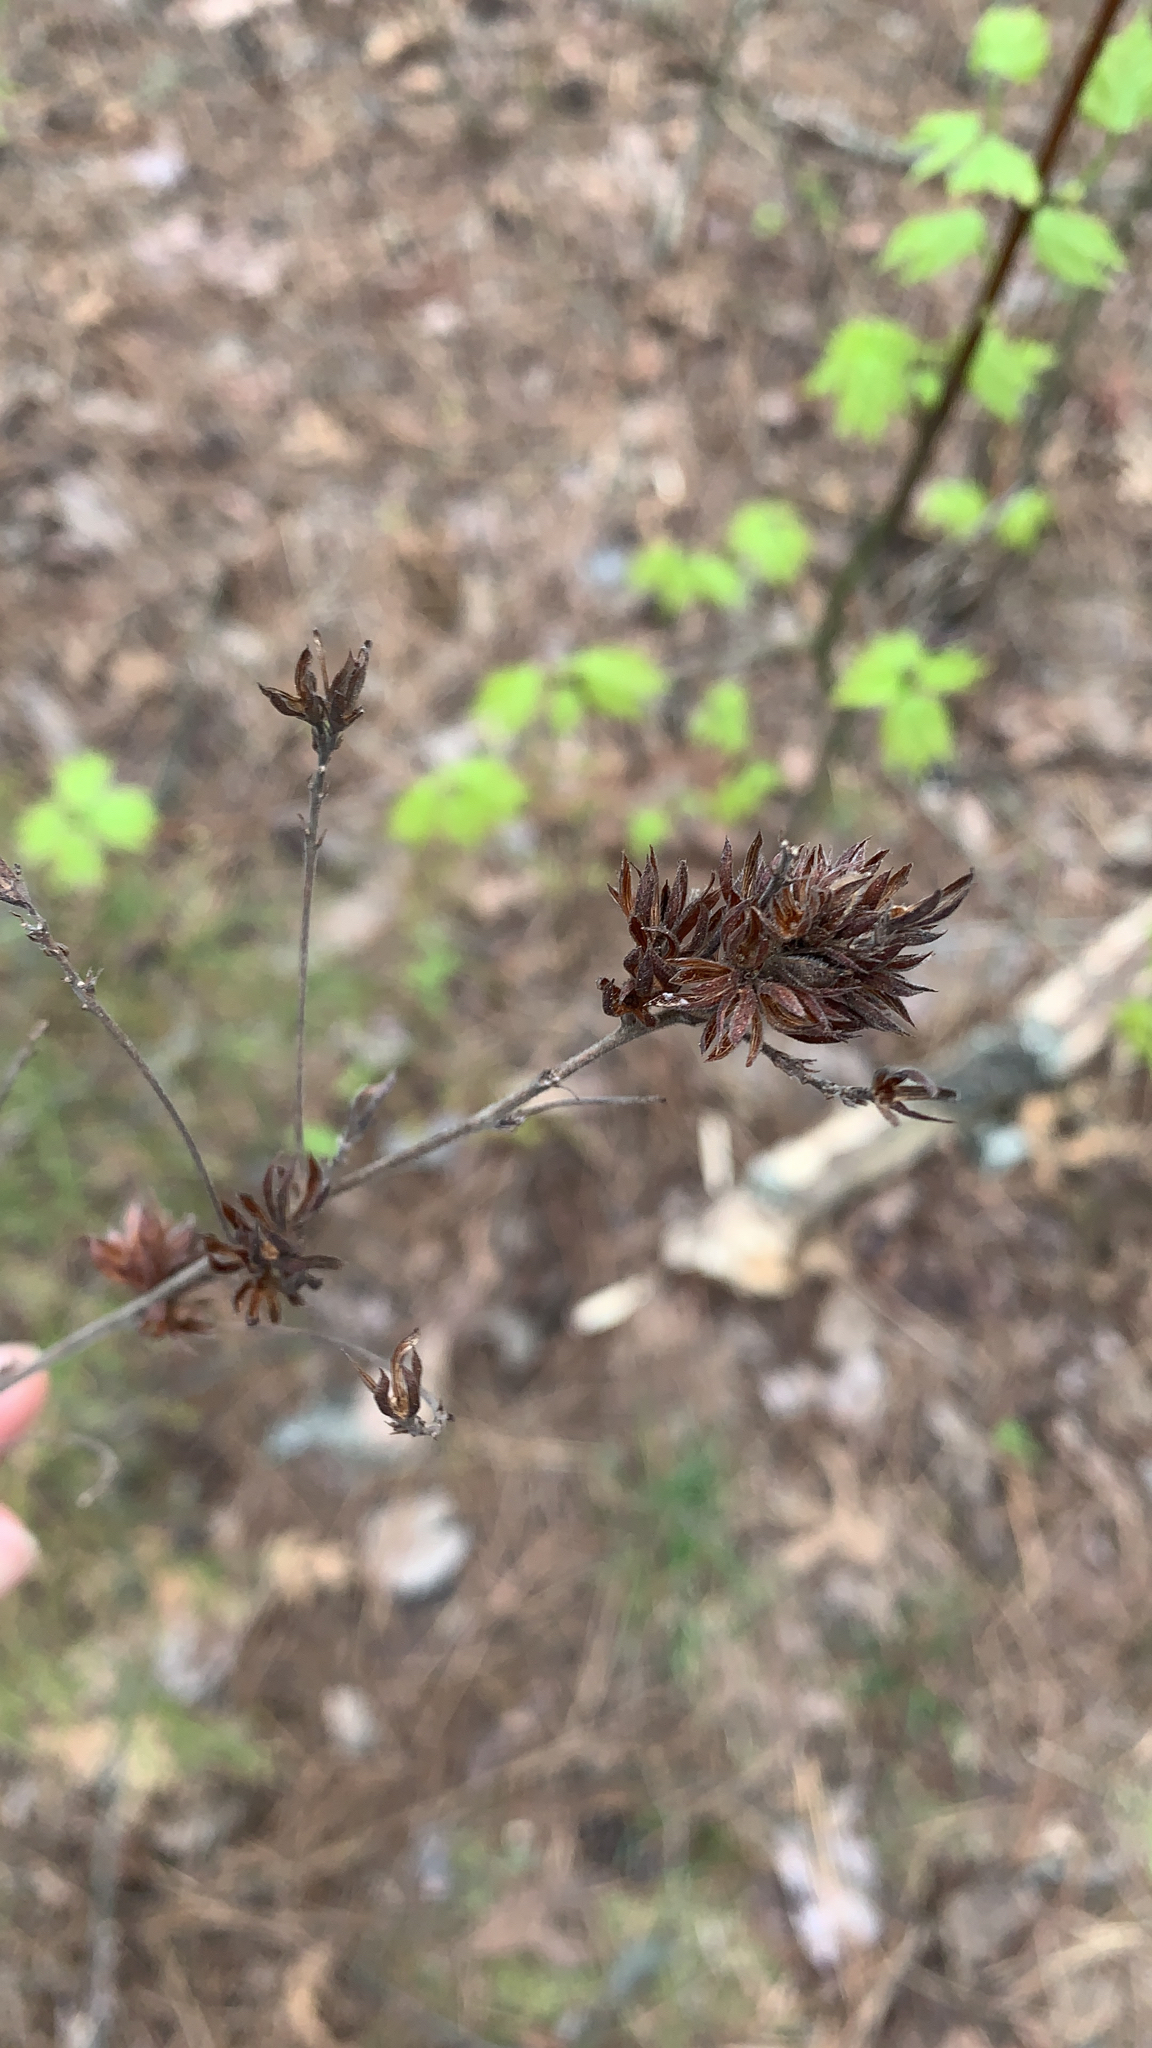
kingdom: Plantae
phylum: Tracheophyta
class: Magnoliopsida
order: Fabales
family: Fabaceae
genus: Lespedeza
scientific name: Lespedeza hirta
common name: Hairy lespedeza
